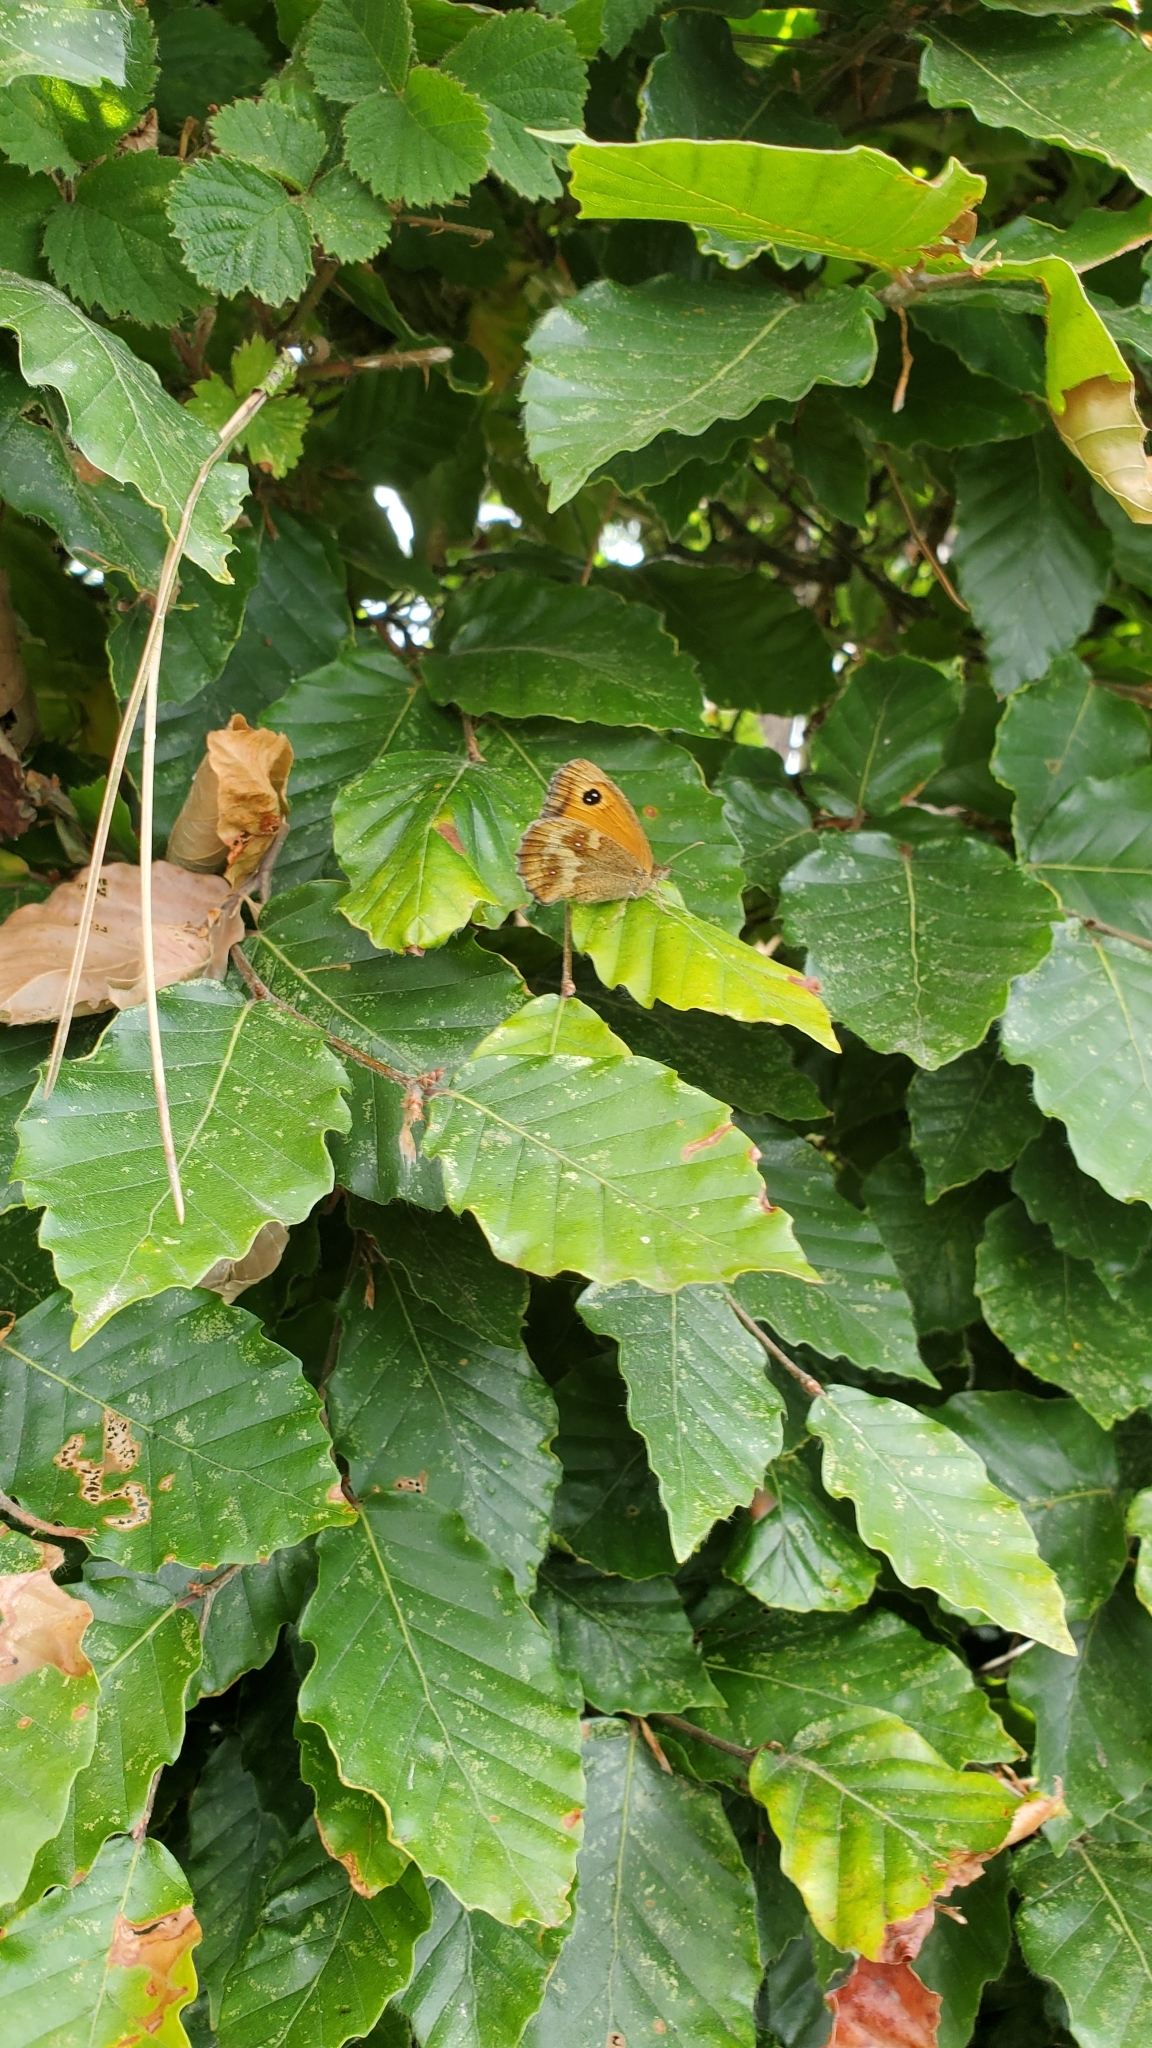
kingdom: Animalia
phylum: Arthropoda
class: Insecta
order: Lepidoptera
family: Nymphalidae
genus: Pyronia
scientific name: Pyronia tithonus
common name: Gatekeeper
